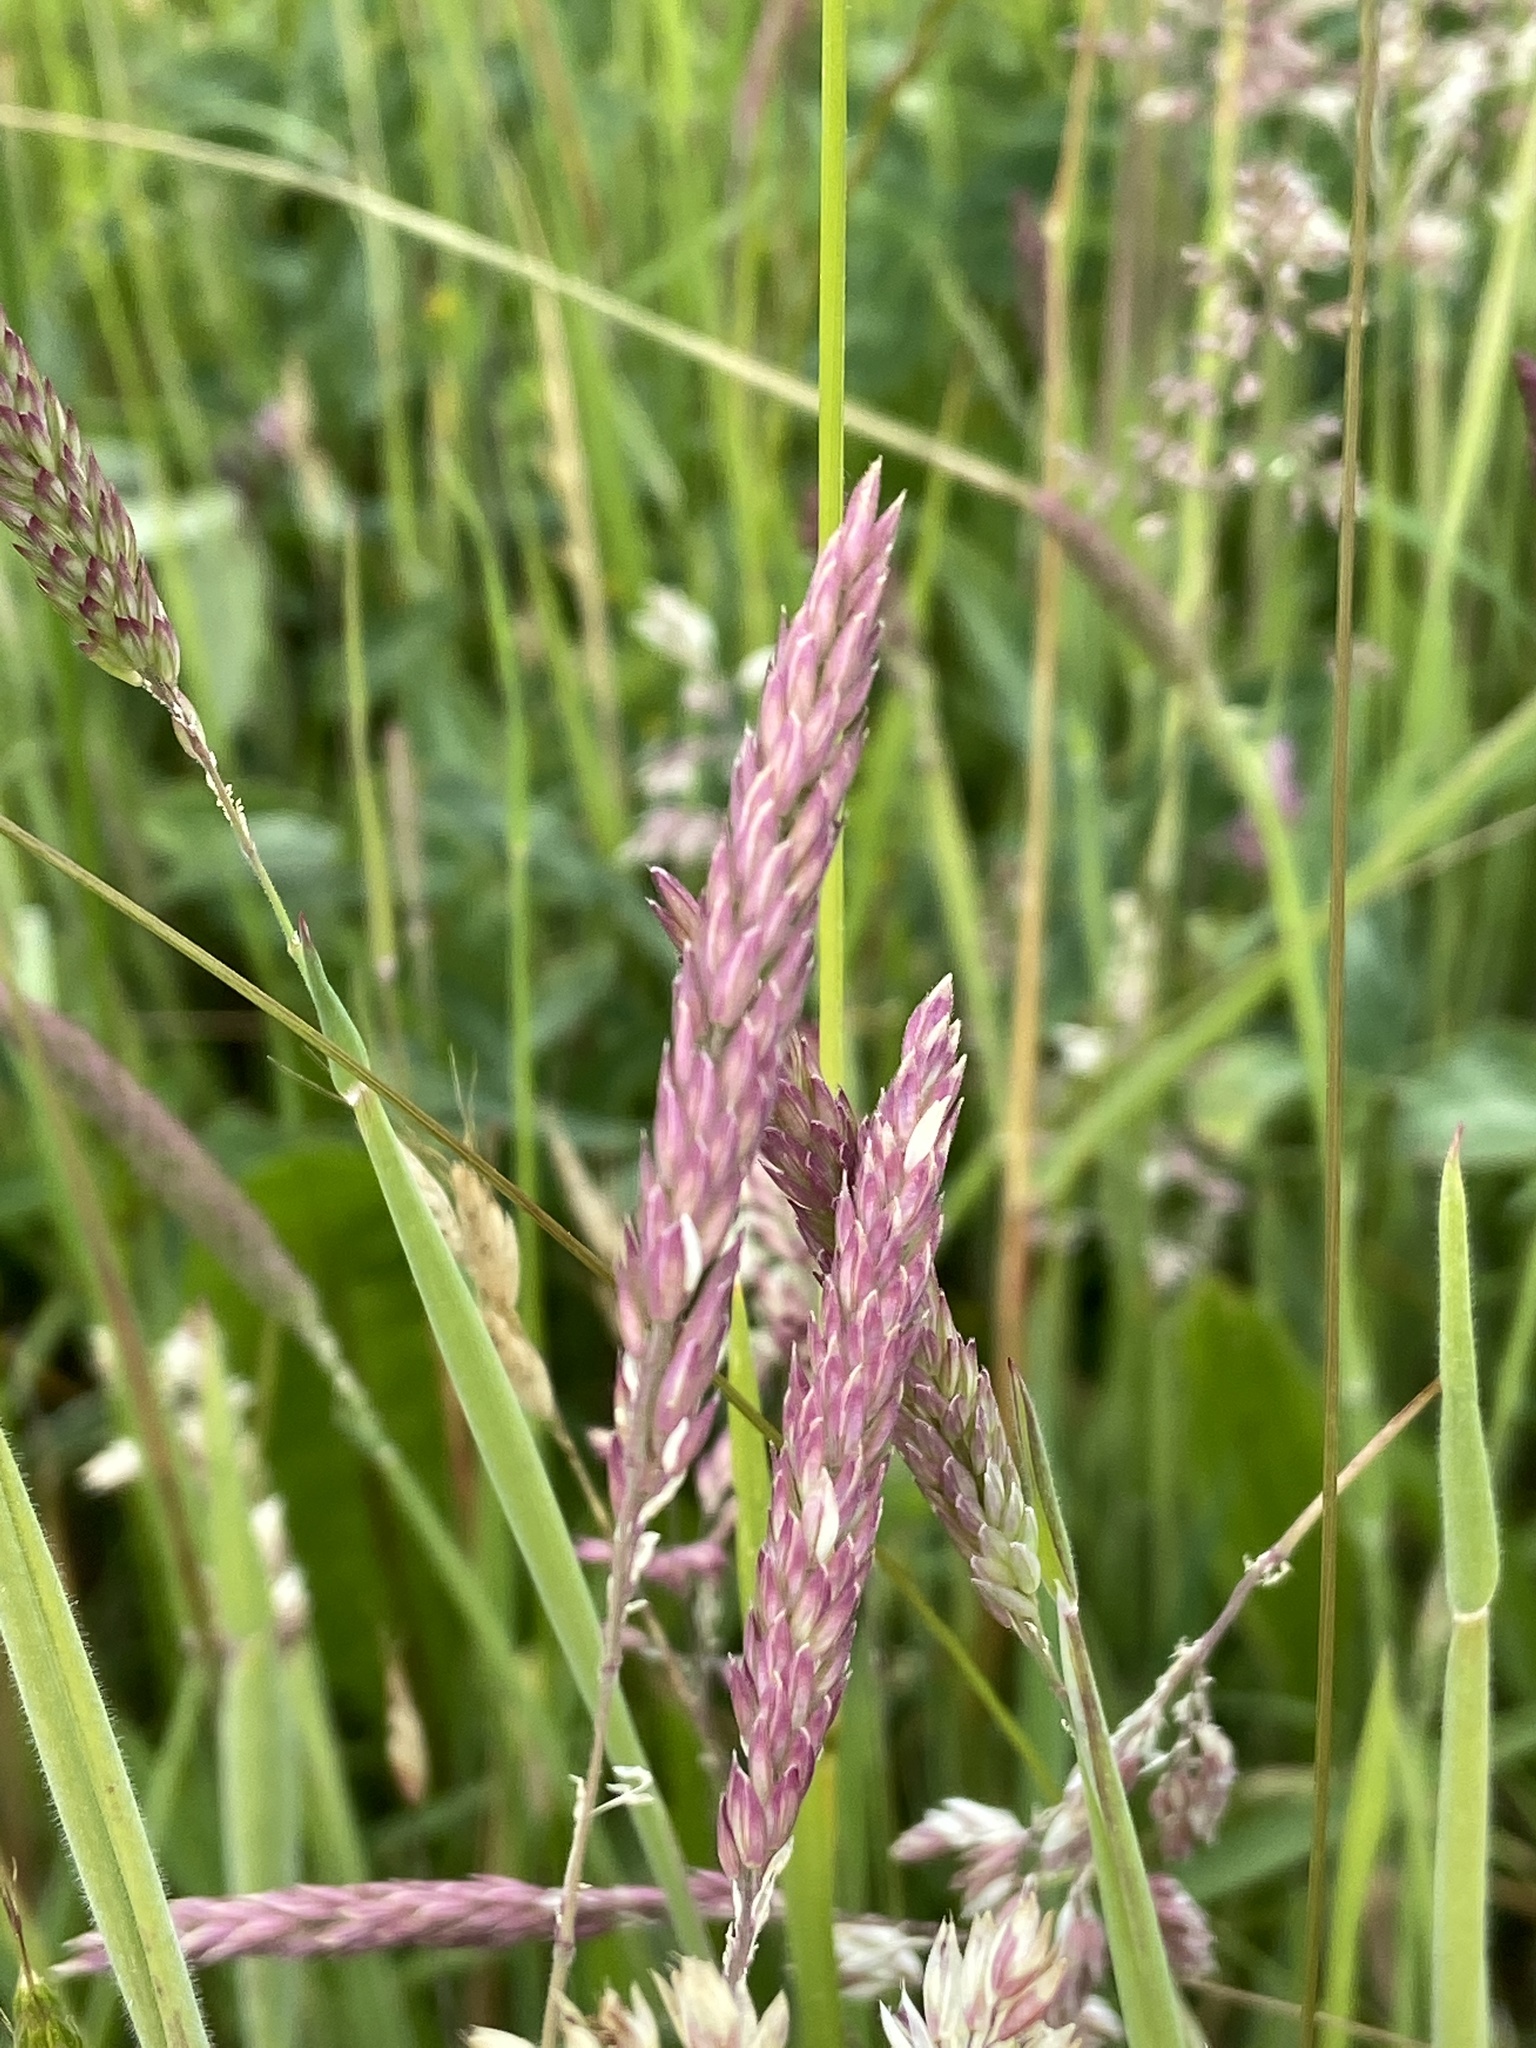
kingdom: Plantae
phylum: Tracheophyta
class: Liliopsida
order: Poales
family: Poaceae
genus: Holcus
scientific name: Holcus lanatus
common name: Yorkshire-fog
